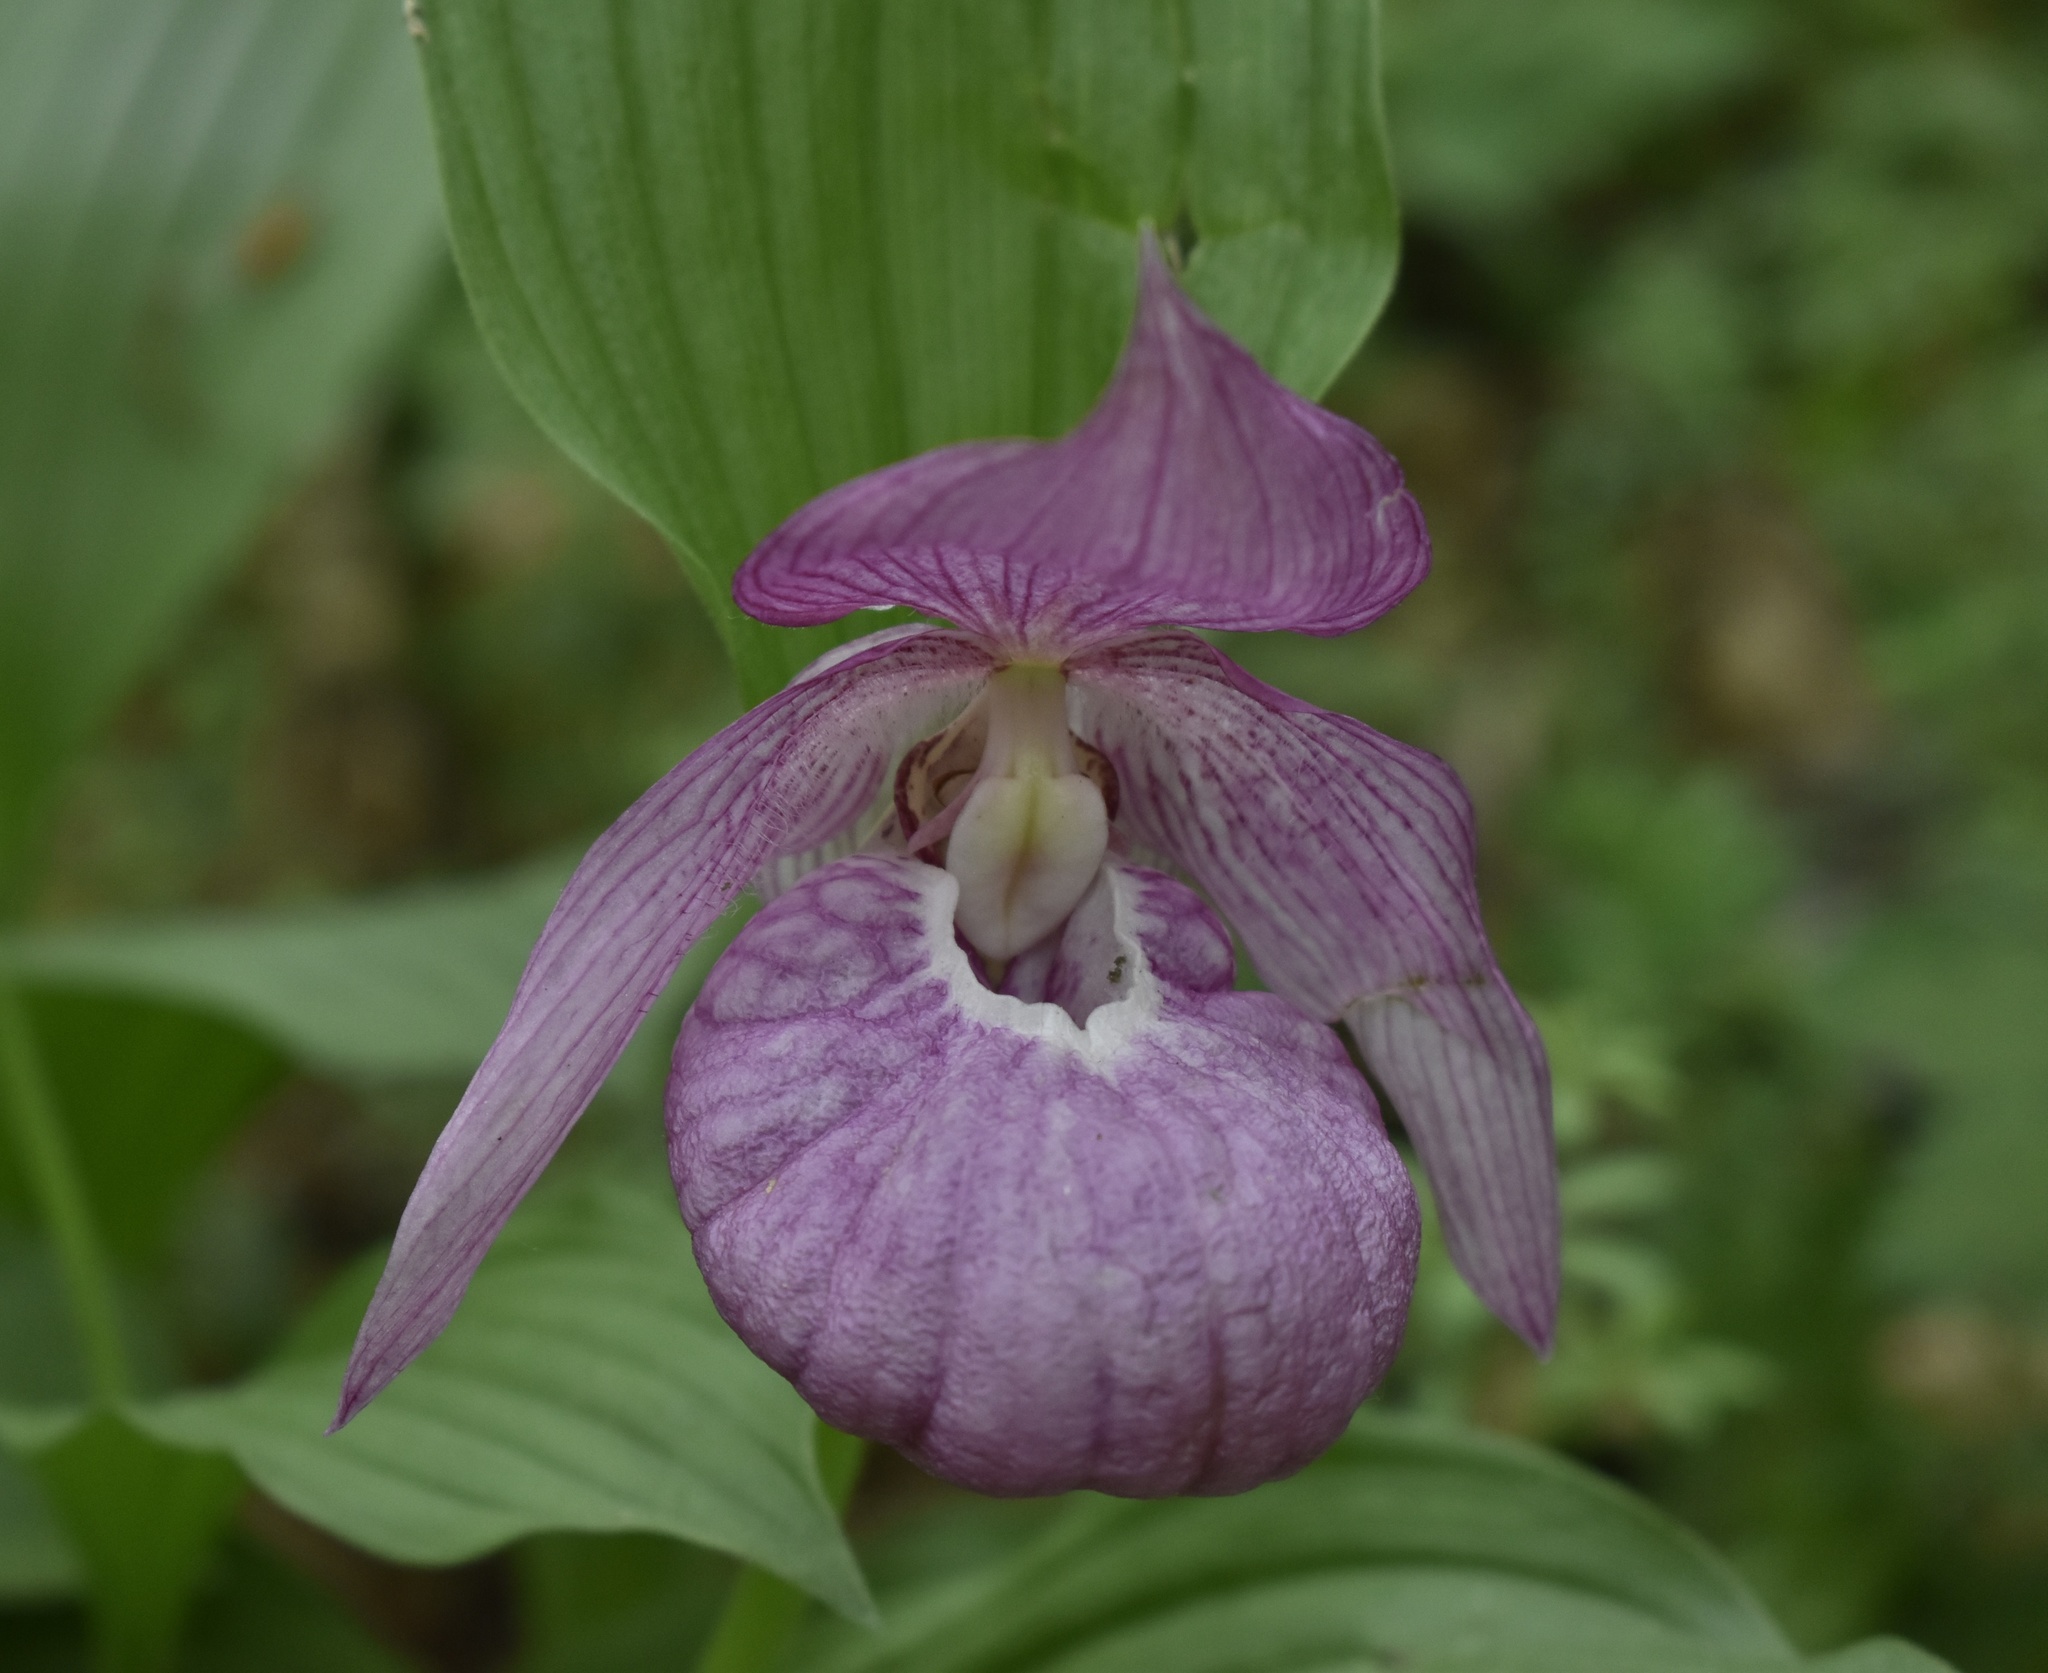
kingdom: Plantae
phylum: Tracheophyta
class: Liliopsida
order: Asparagales
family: Orchidaceae
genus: Cypripedium
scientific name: Cypripedium macranthos
